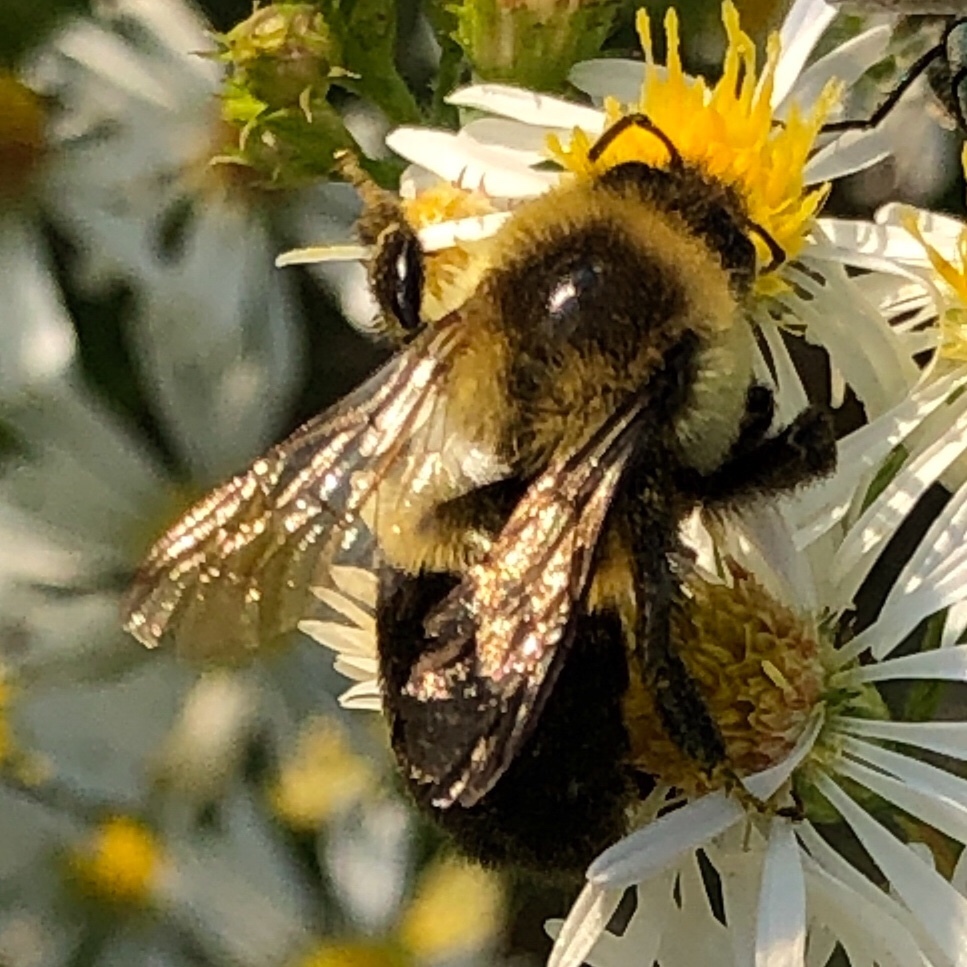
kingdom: Animalia
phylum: Arthropoda
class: Insecta
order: Hymenoptera
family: Apidae
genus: Bombus
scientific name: Bombus impatiens
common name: Common eastern bumble bee
